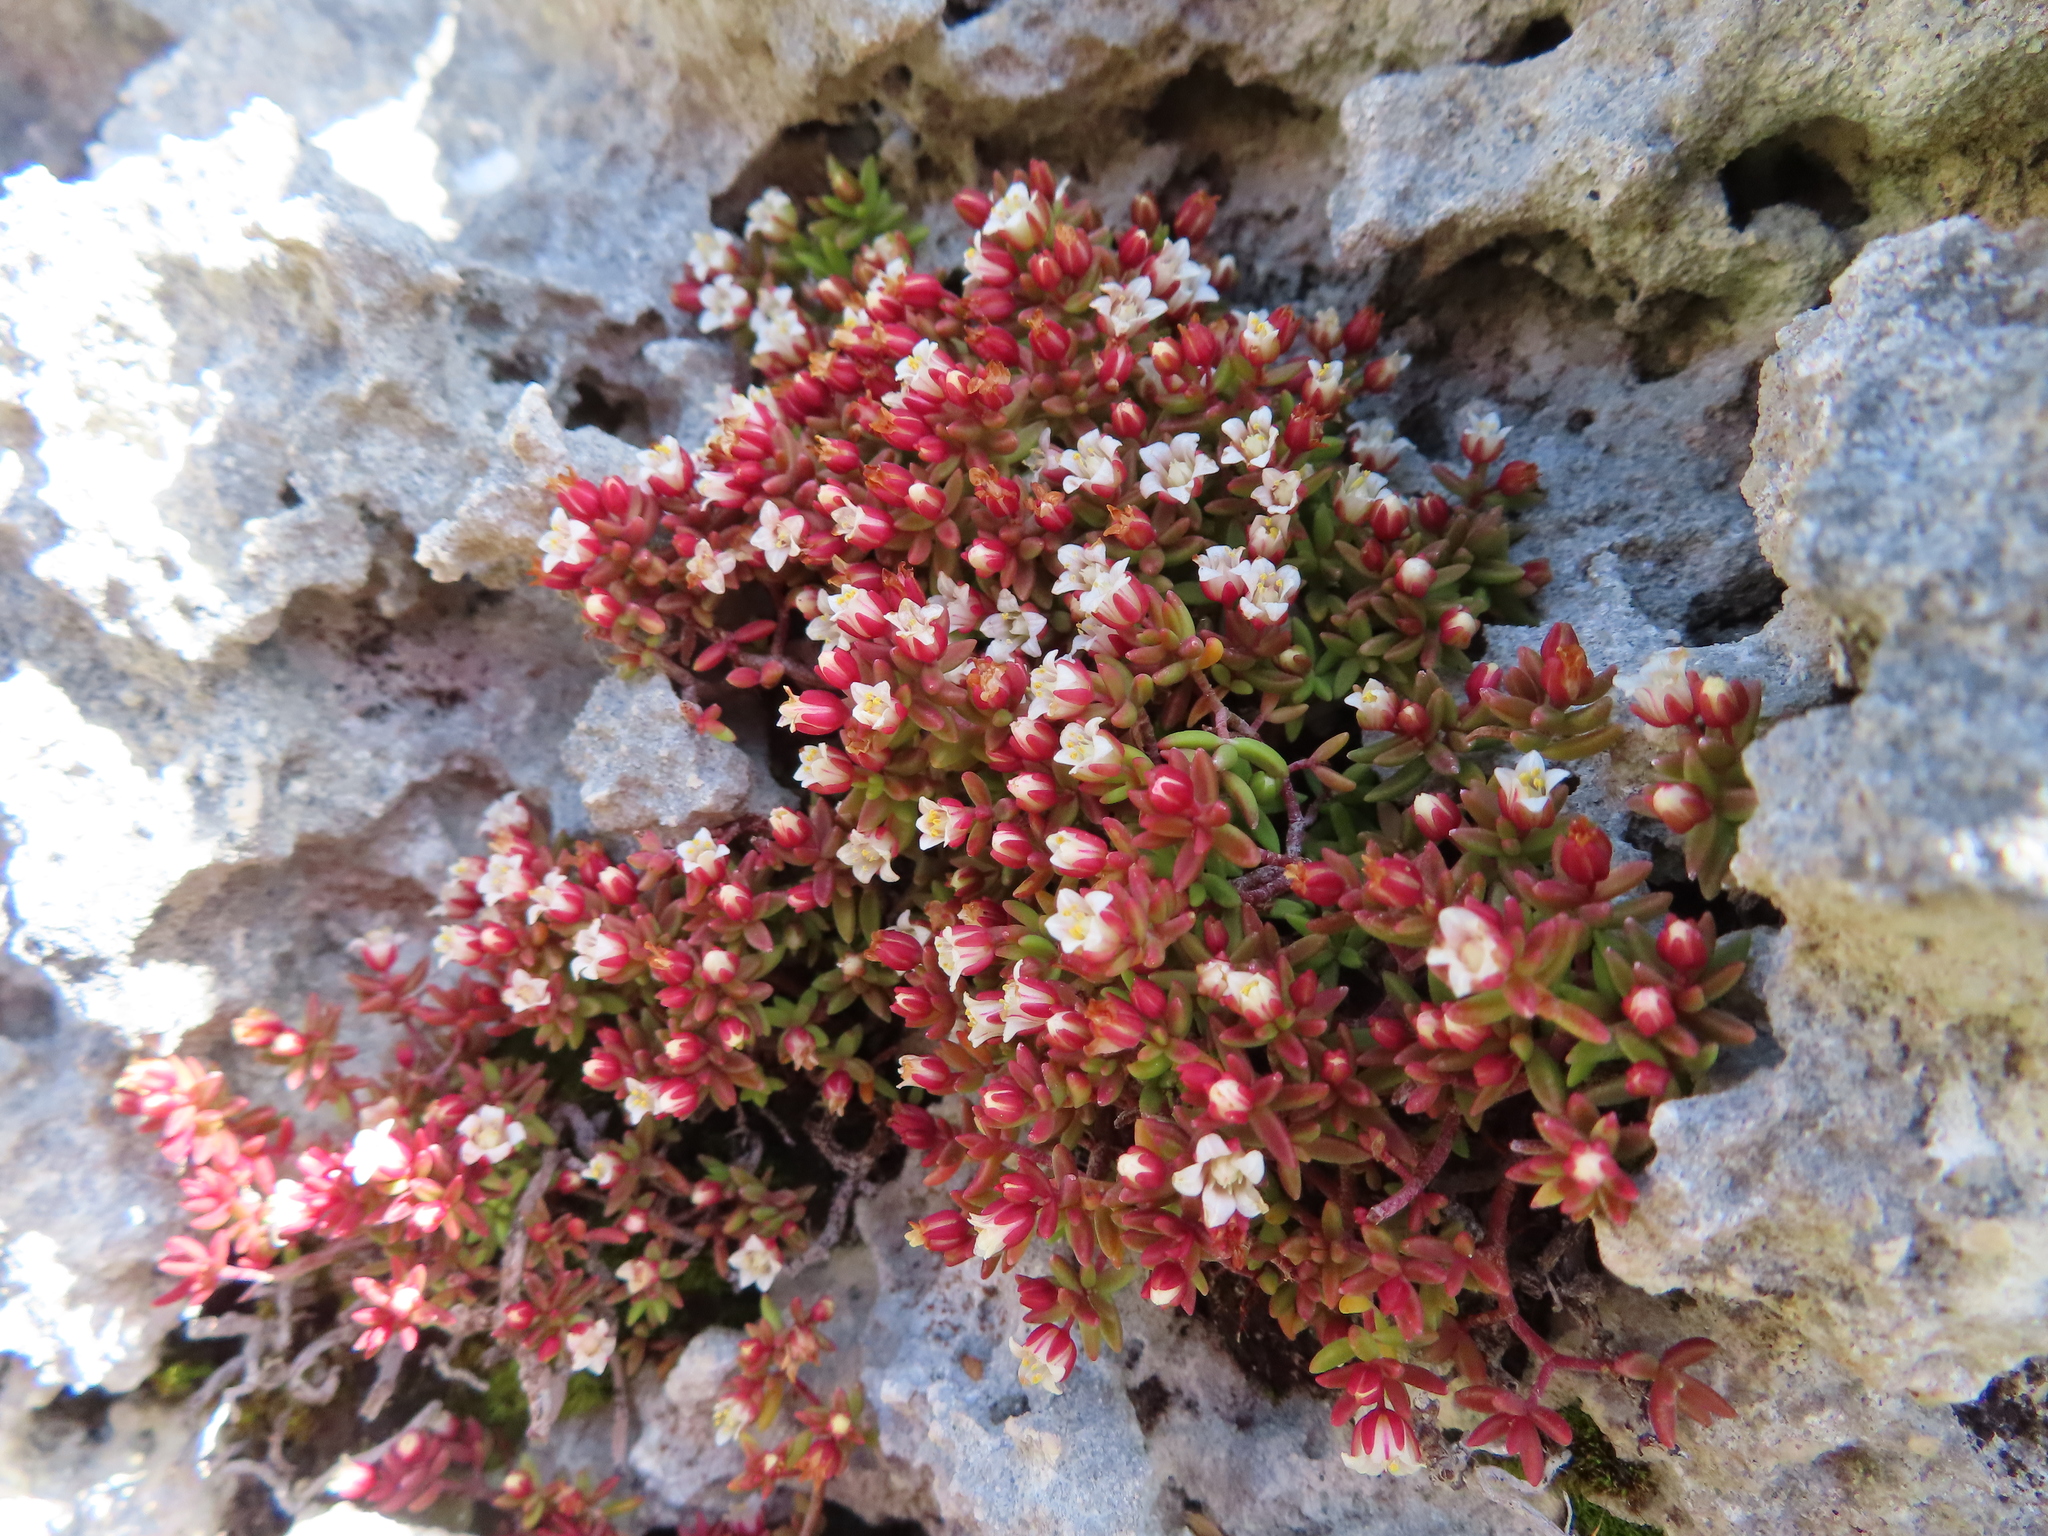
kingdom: Plantae
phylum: Tracheophyta
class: Magnoliopsida
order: Saxifragales
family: Crassulaceae
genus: Crassula
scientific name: Crassula expansa
